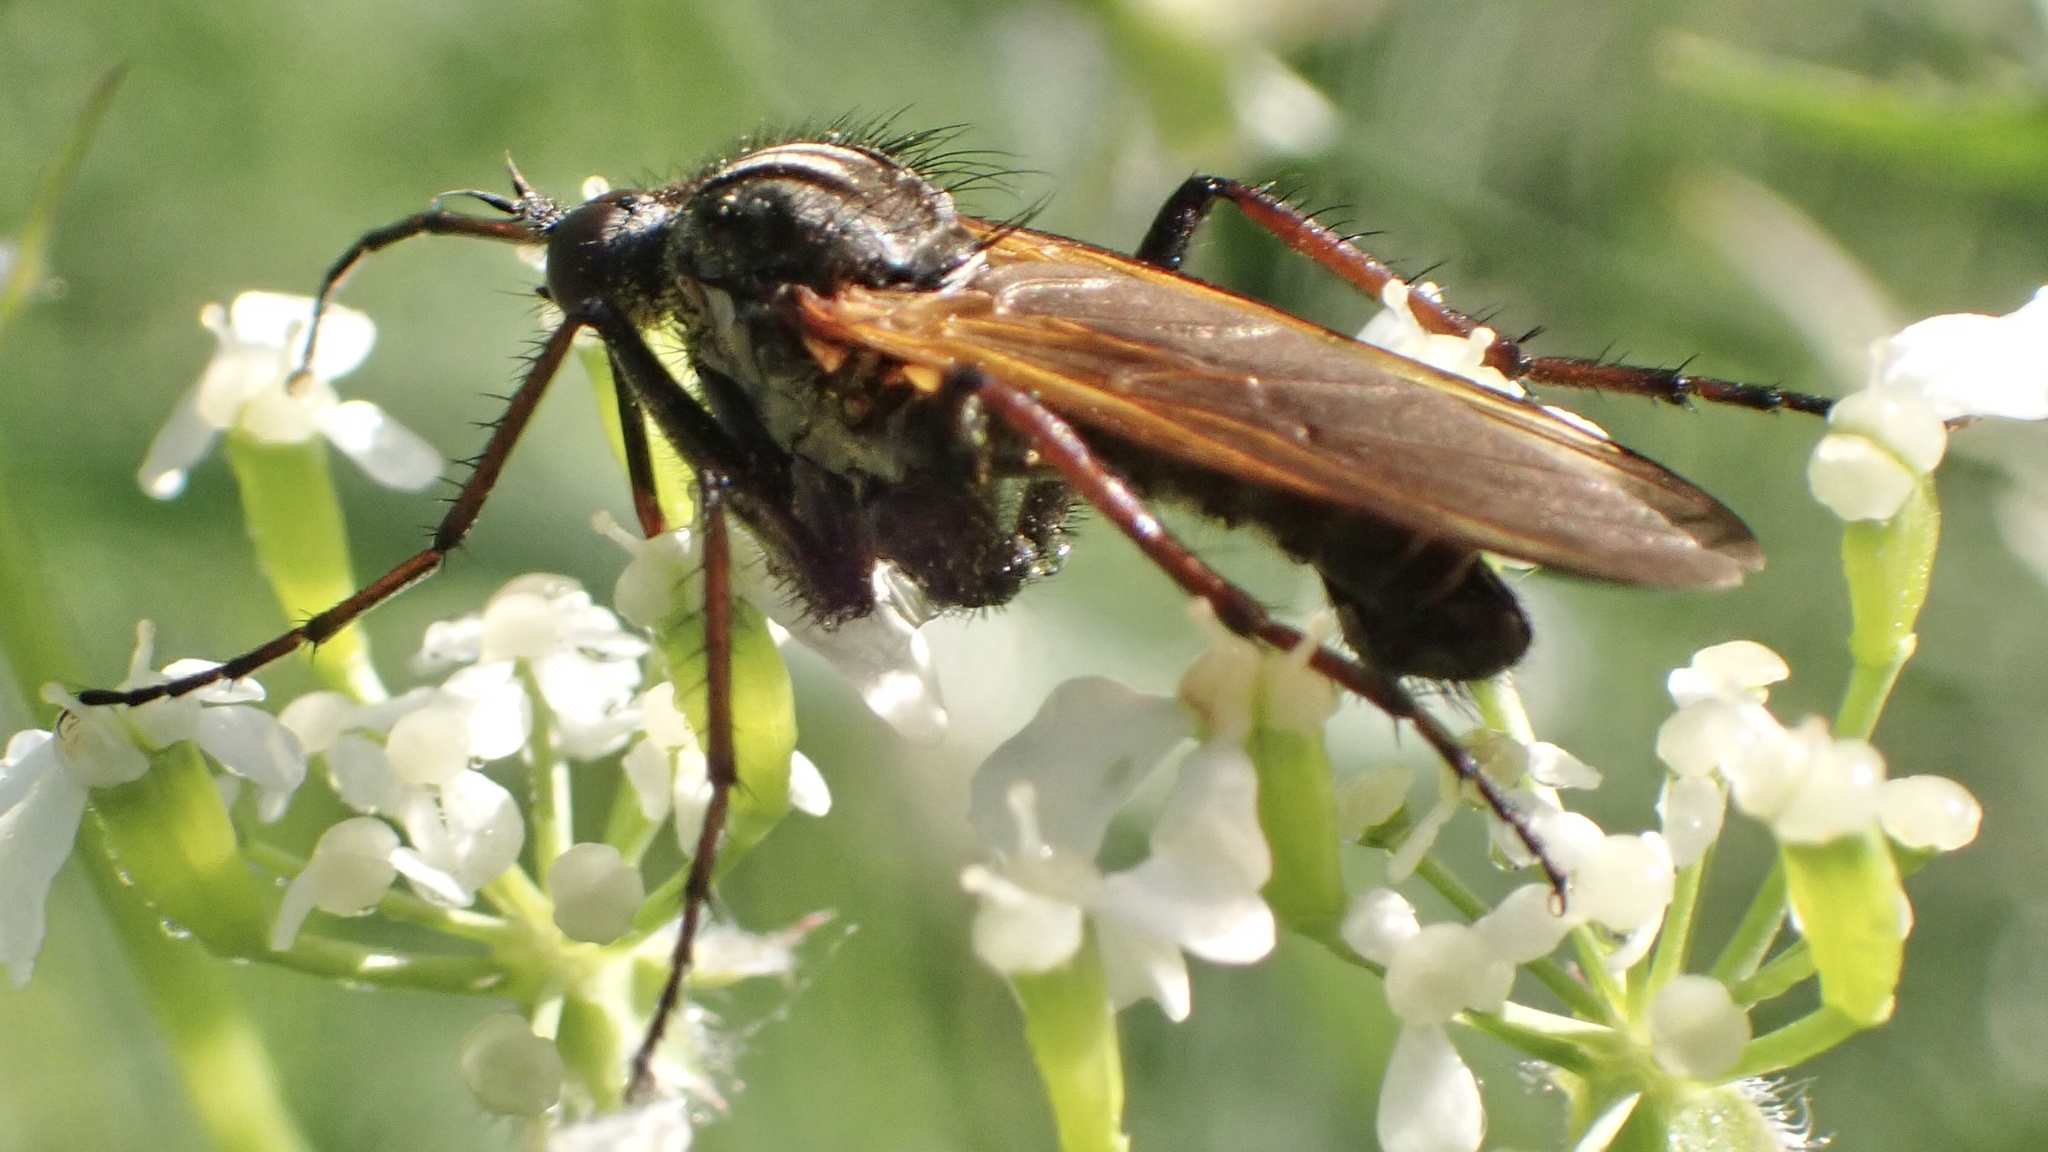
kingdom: Animalia
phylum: Arthropoda
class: Insecta
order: Diptera
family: Empididae
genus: Empis
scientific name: Empis tessellata
